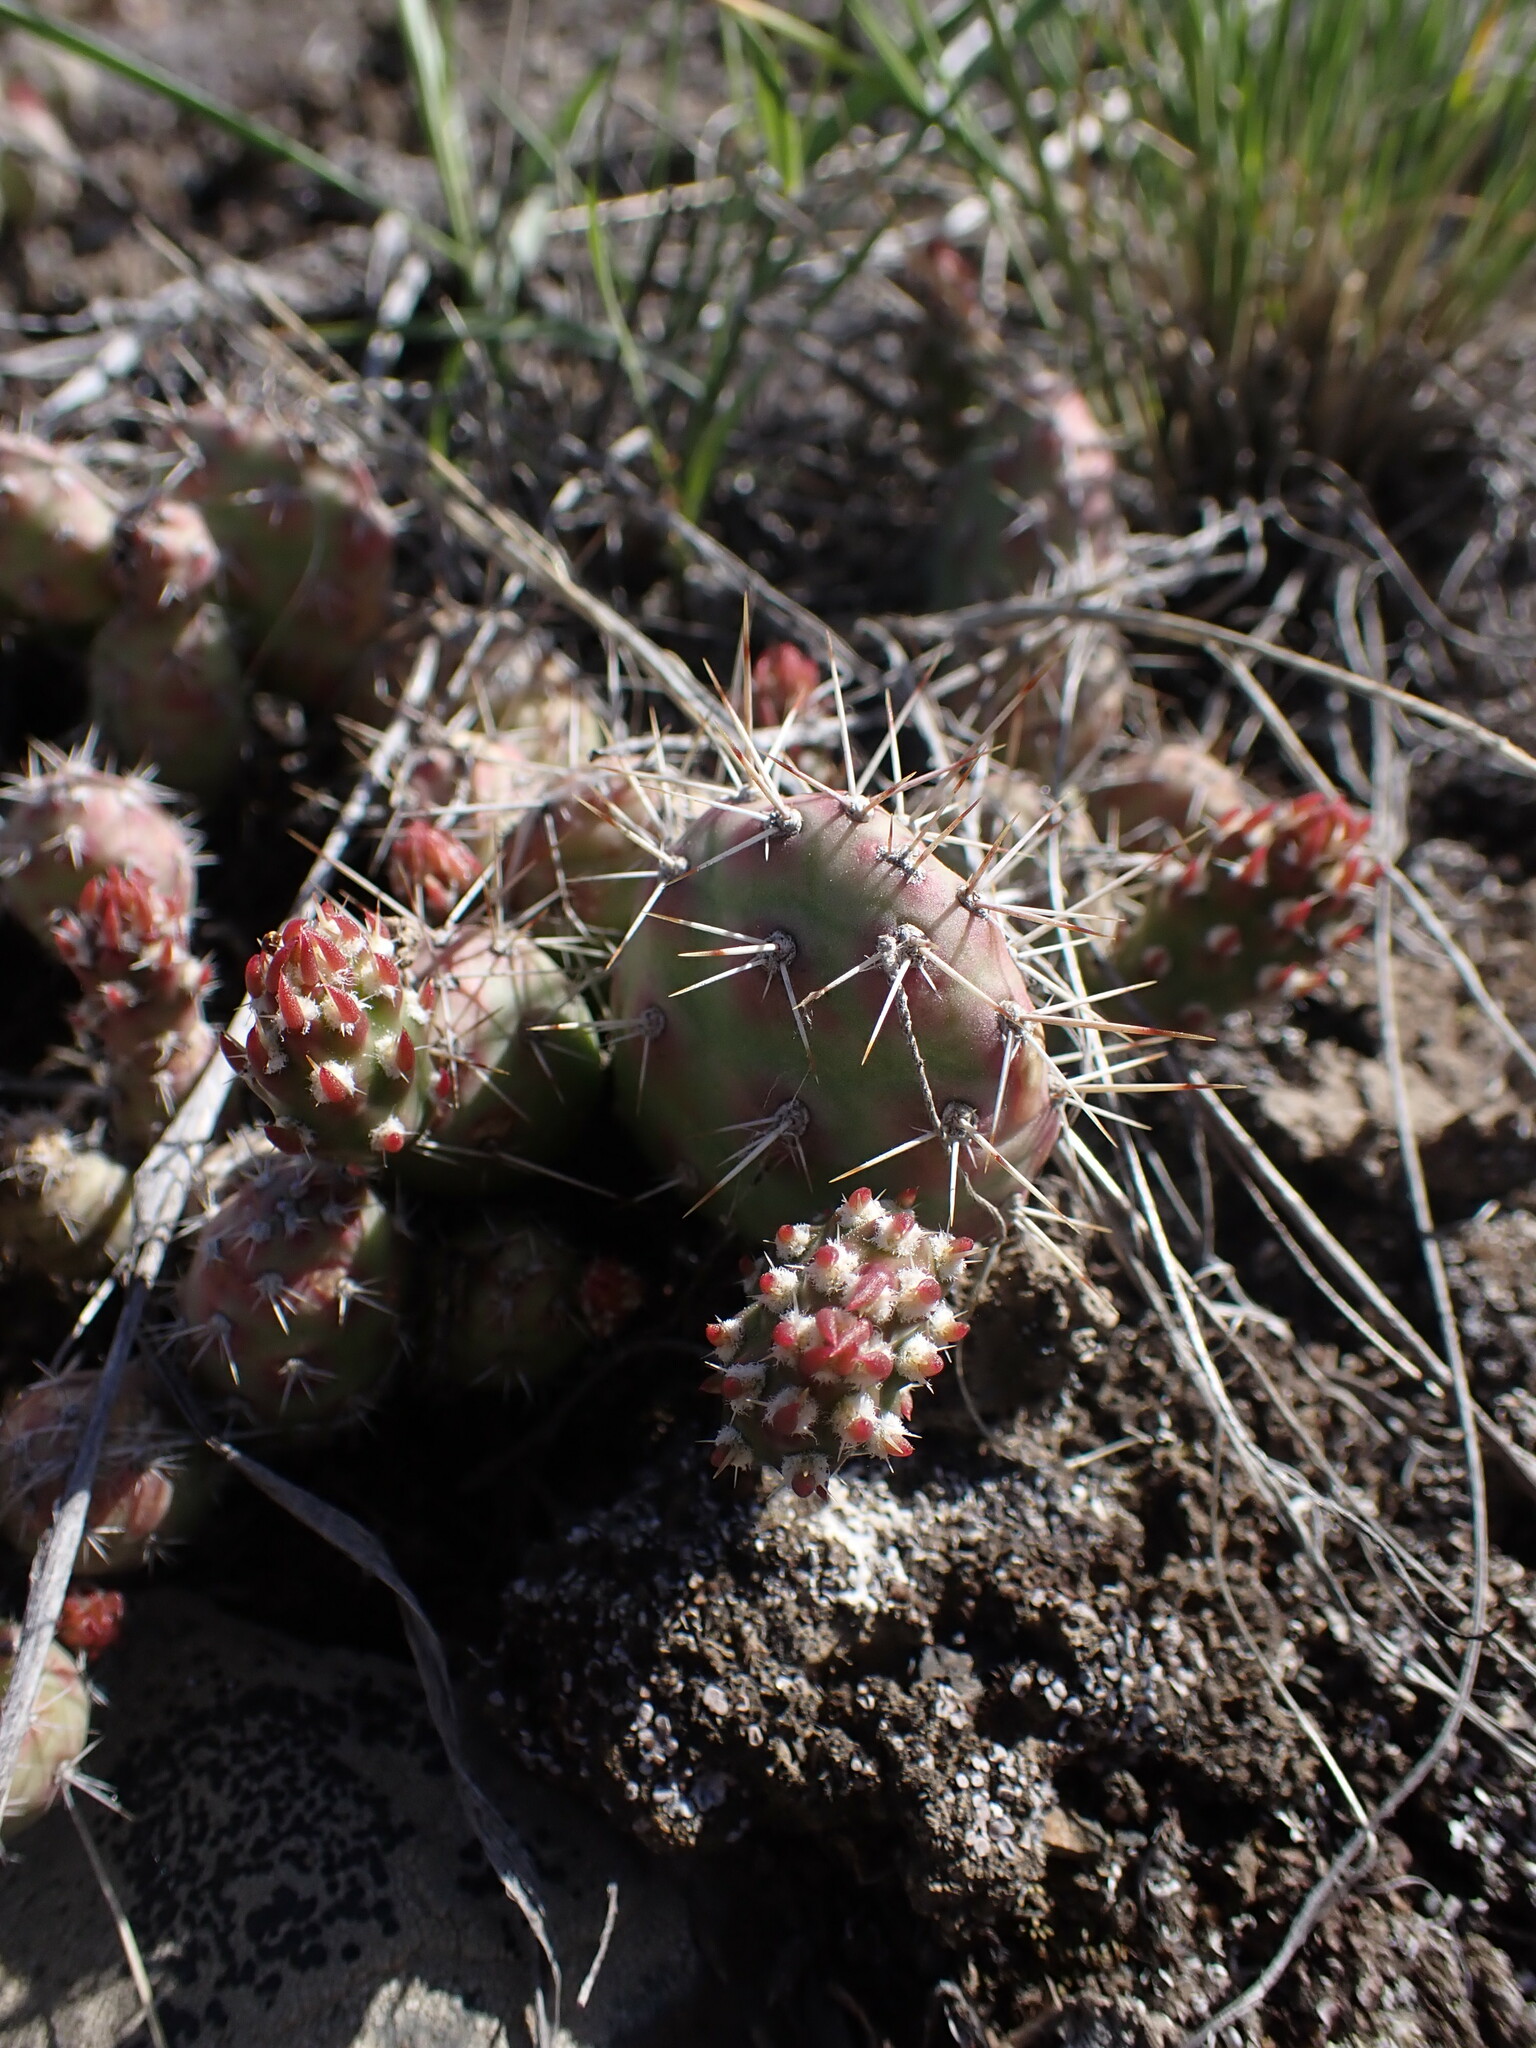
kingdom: Plantae
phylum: Tracheophyta
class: Magnoliopsida
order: Caryophyllales
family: Cactaceae
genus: Opuntia
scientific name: Opuntia fragilis
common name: Brittle cactus
